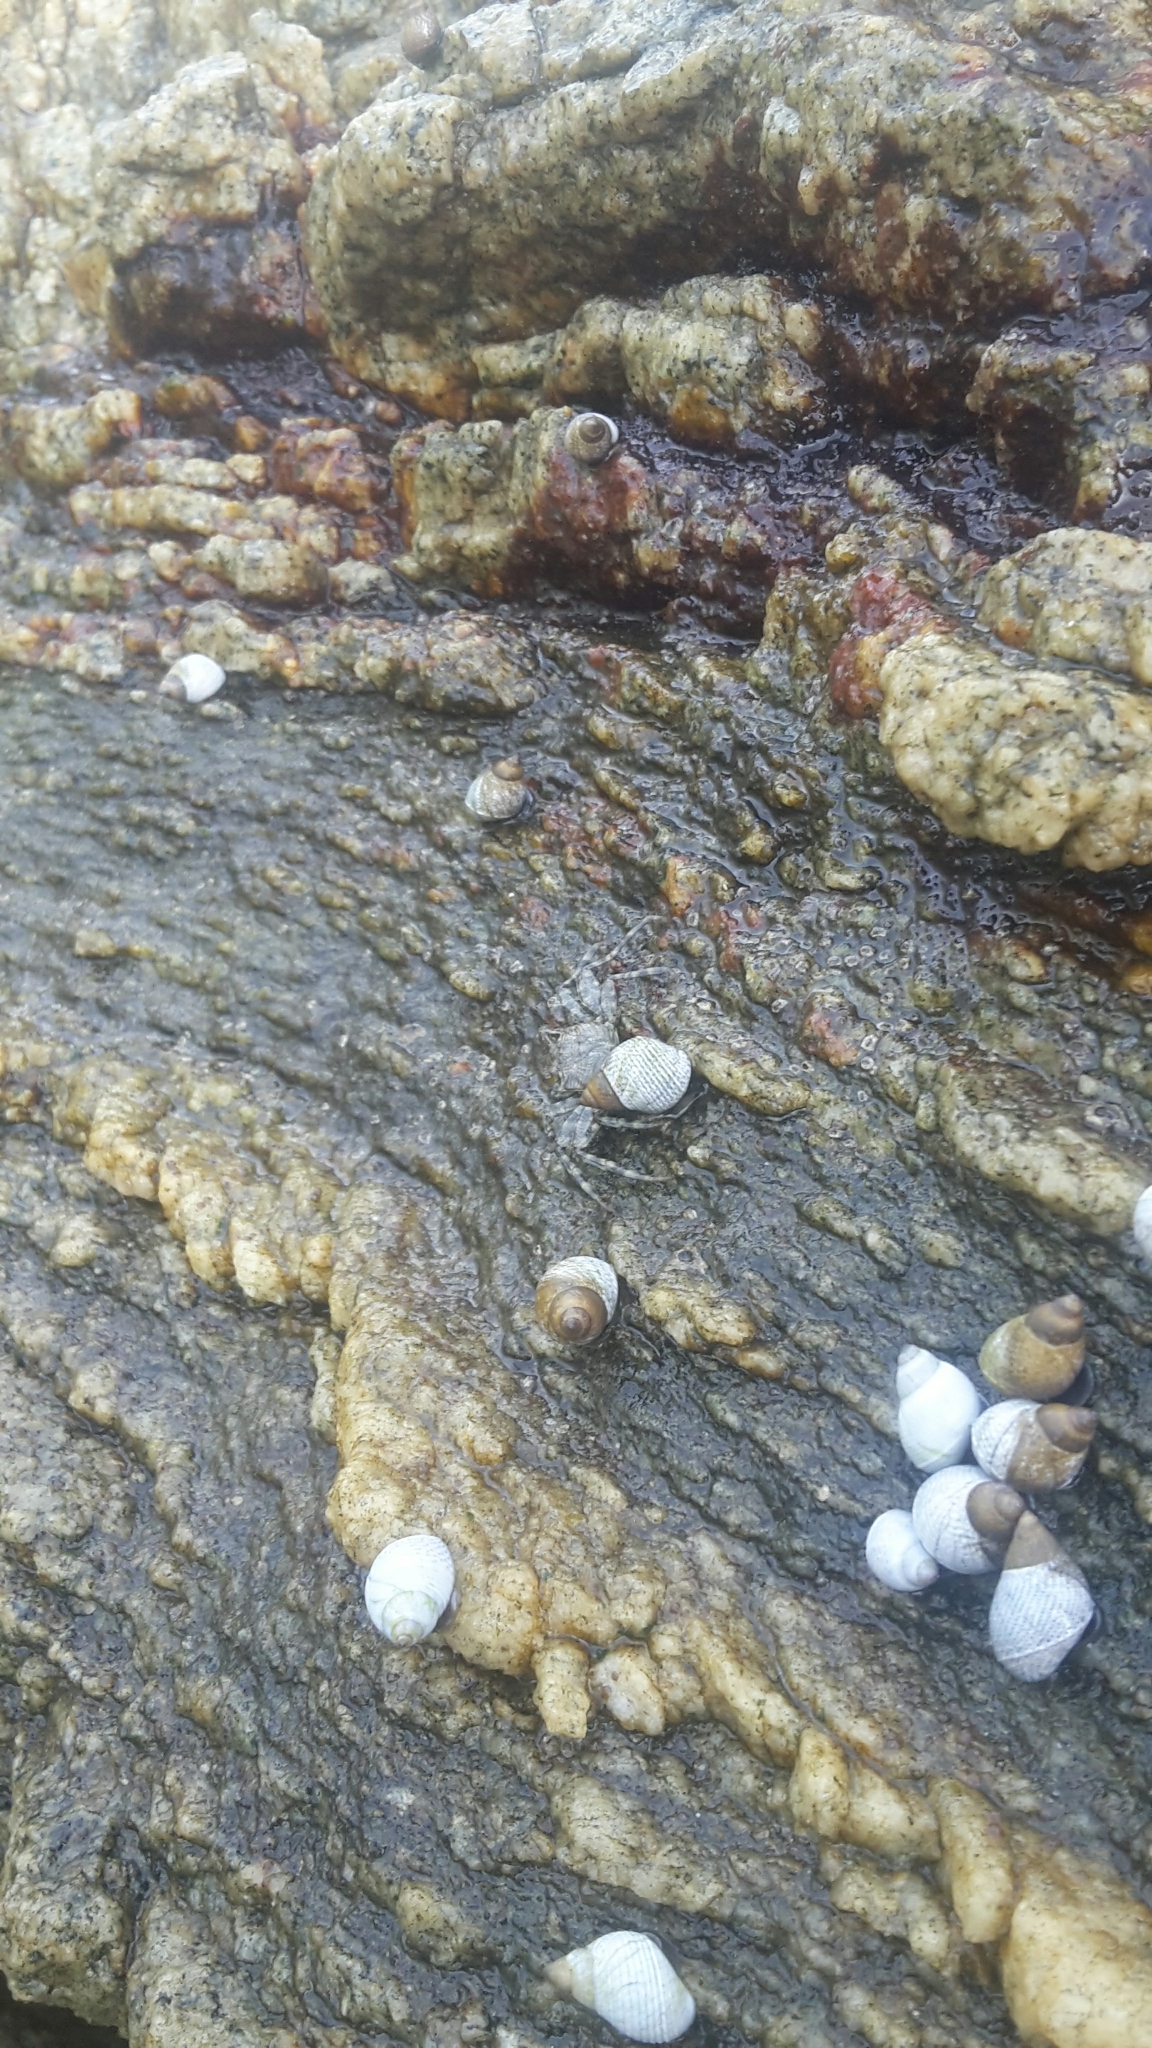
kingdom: Animalia
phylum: Mollusca
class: Gastropoda
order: Littorinimorpha
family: Littorinidae
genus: Echinolittorina
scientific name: Echinolittorina modesta
